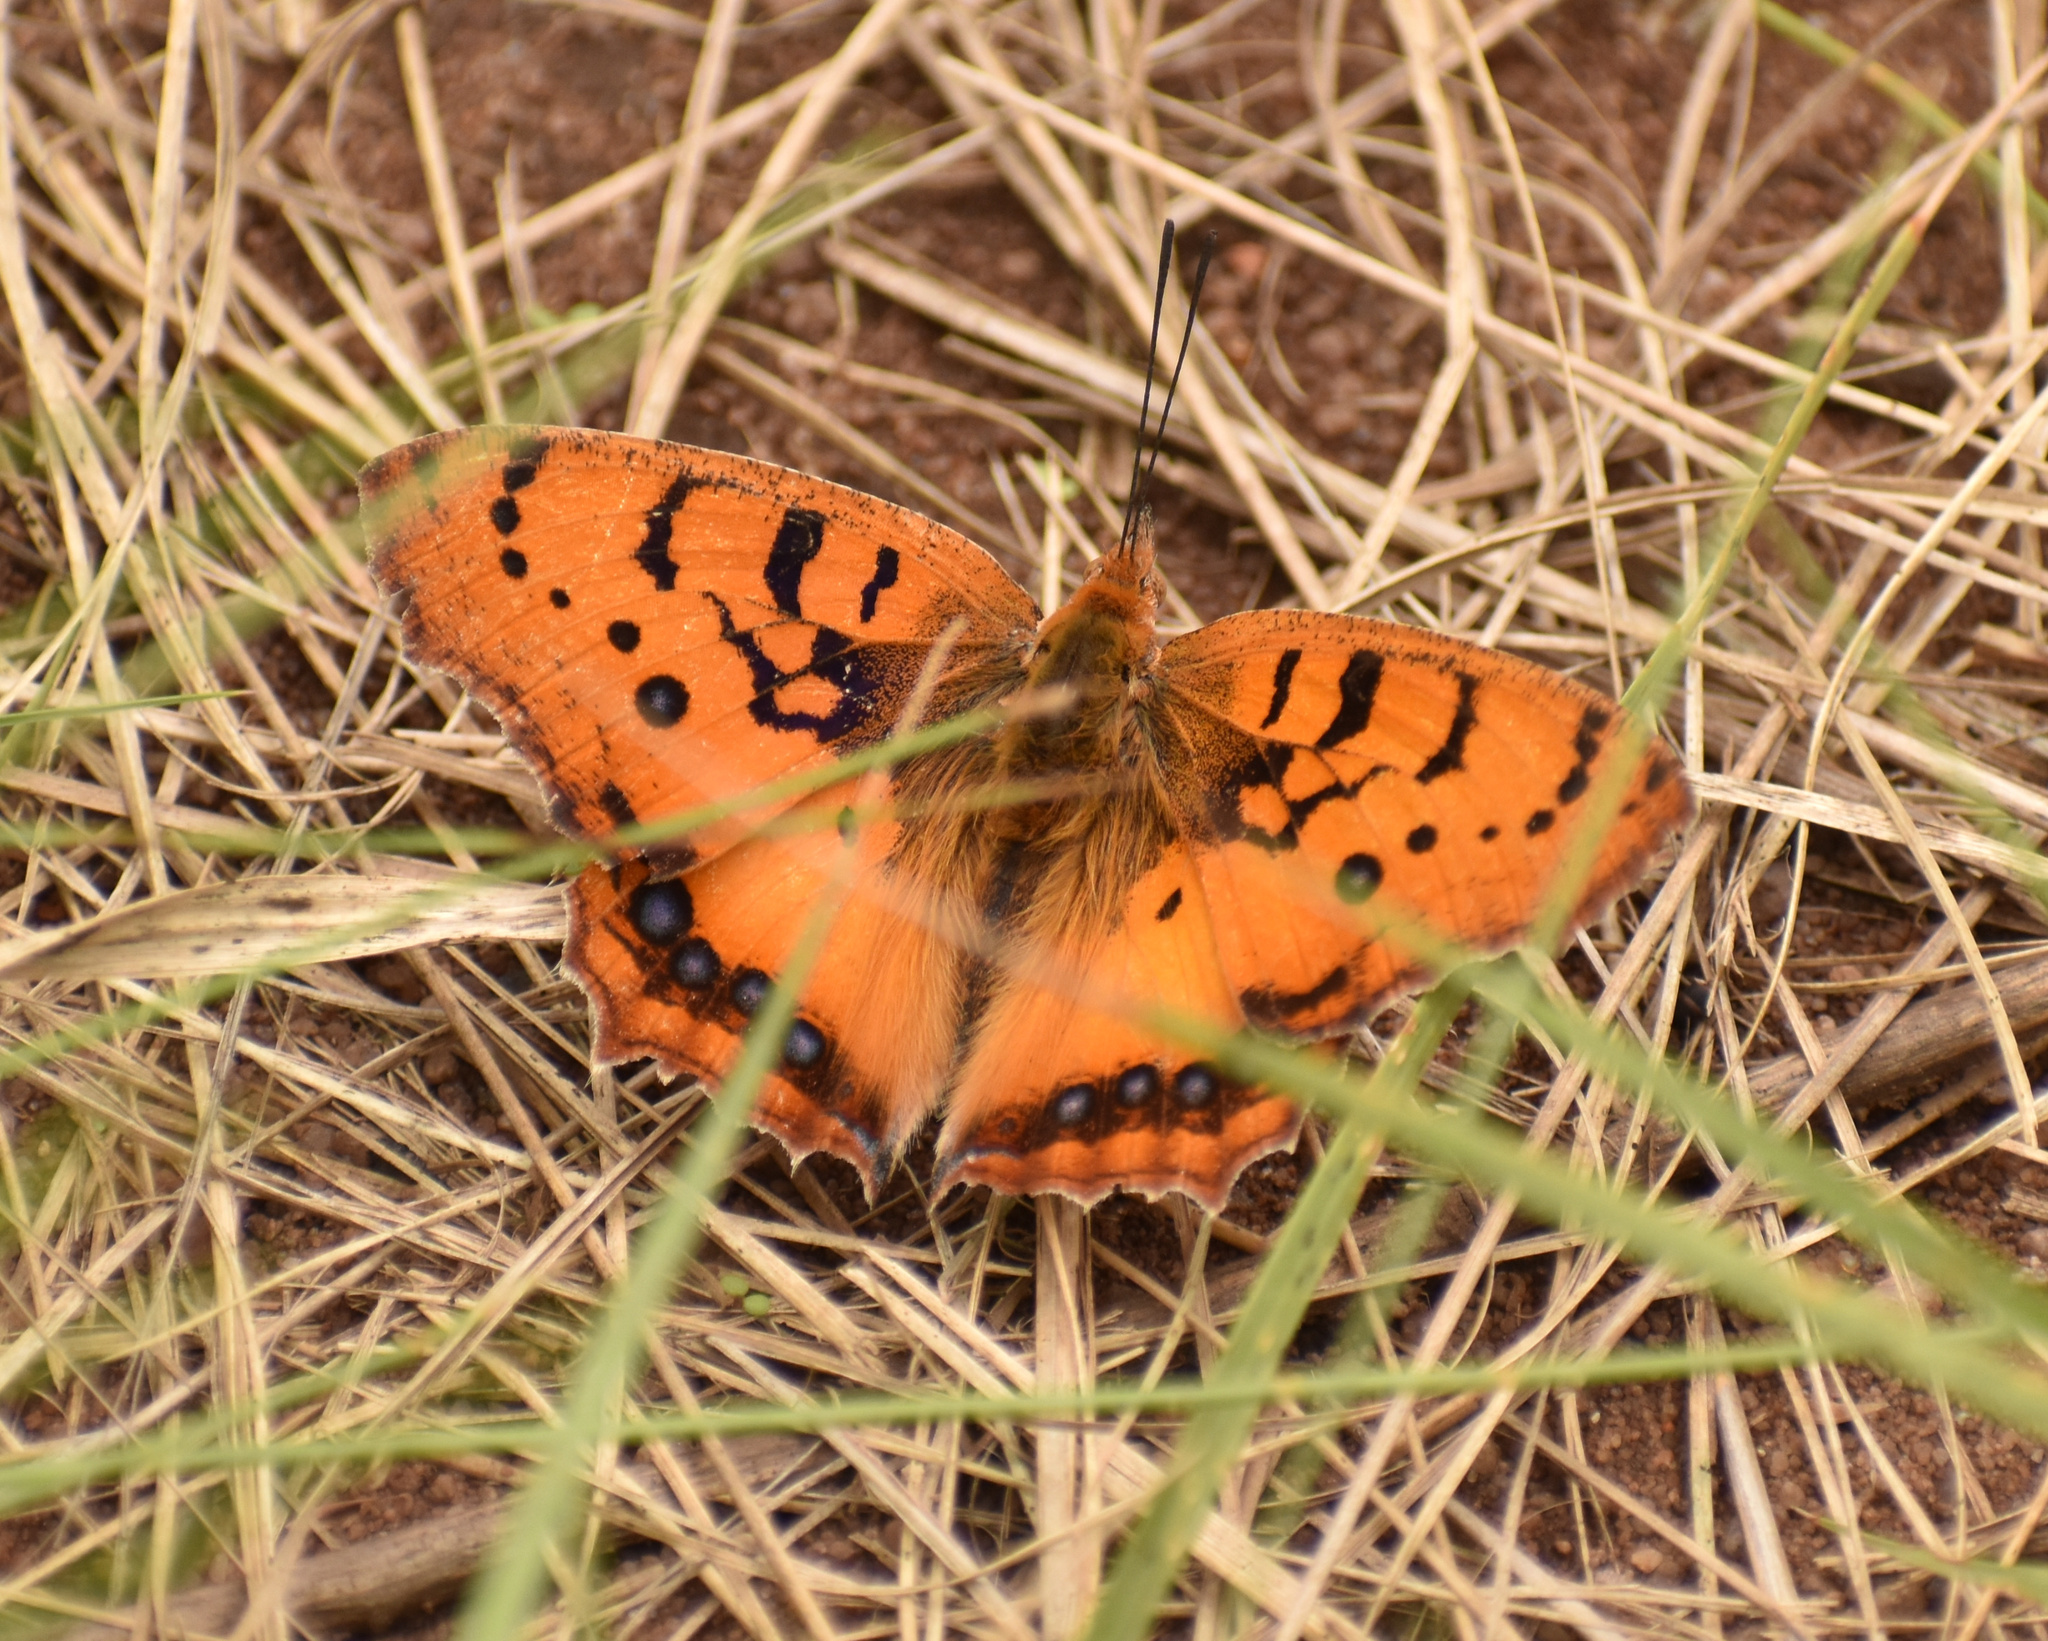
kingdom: Animalia
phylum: Arthropoda
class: Insecta
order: Lepidoptera
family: Nymphalidae
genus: Catacroptera
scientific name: Catacroptera cloanthe
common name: Pirate
